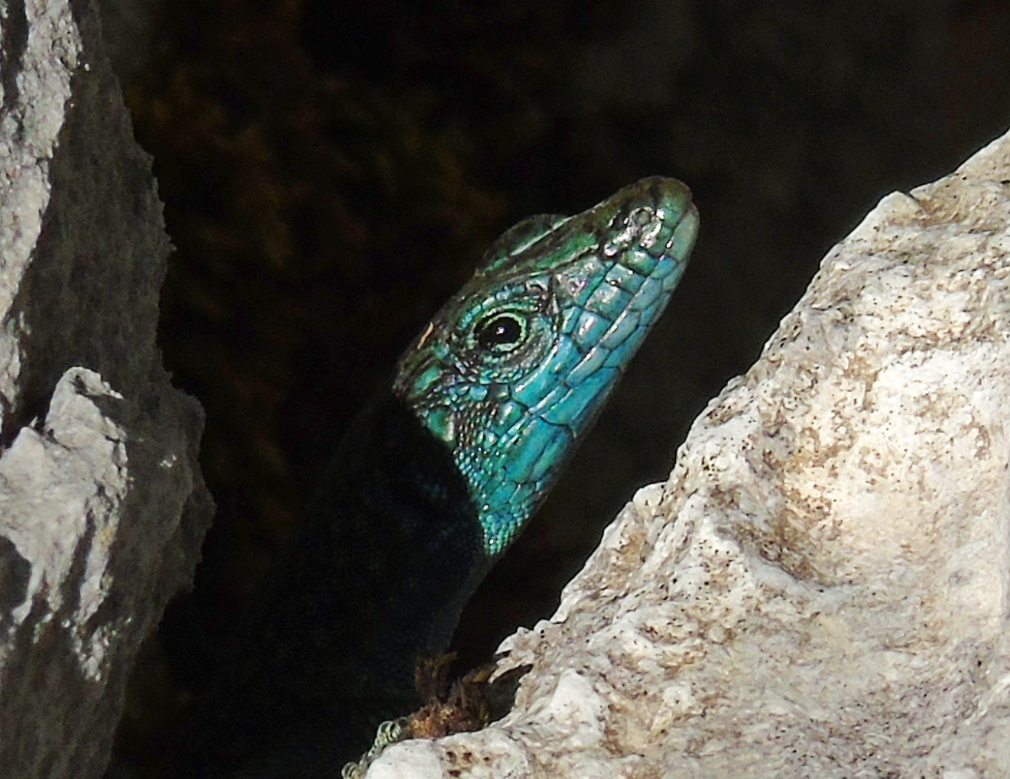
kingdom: Animalia
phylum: Chordata
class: Squamata
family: Lacertidae
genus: Dalmatolacerta
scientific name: Dalmatolacerta oxycephala
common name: Sharp-snouted rock lizard
